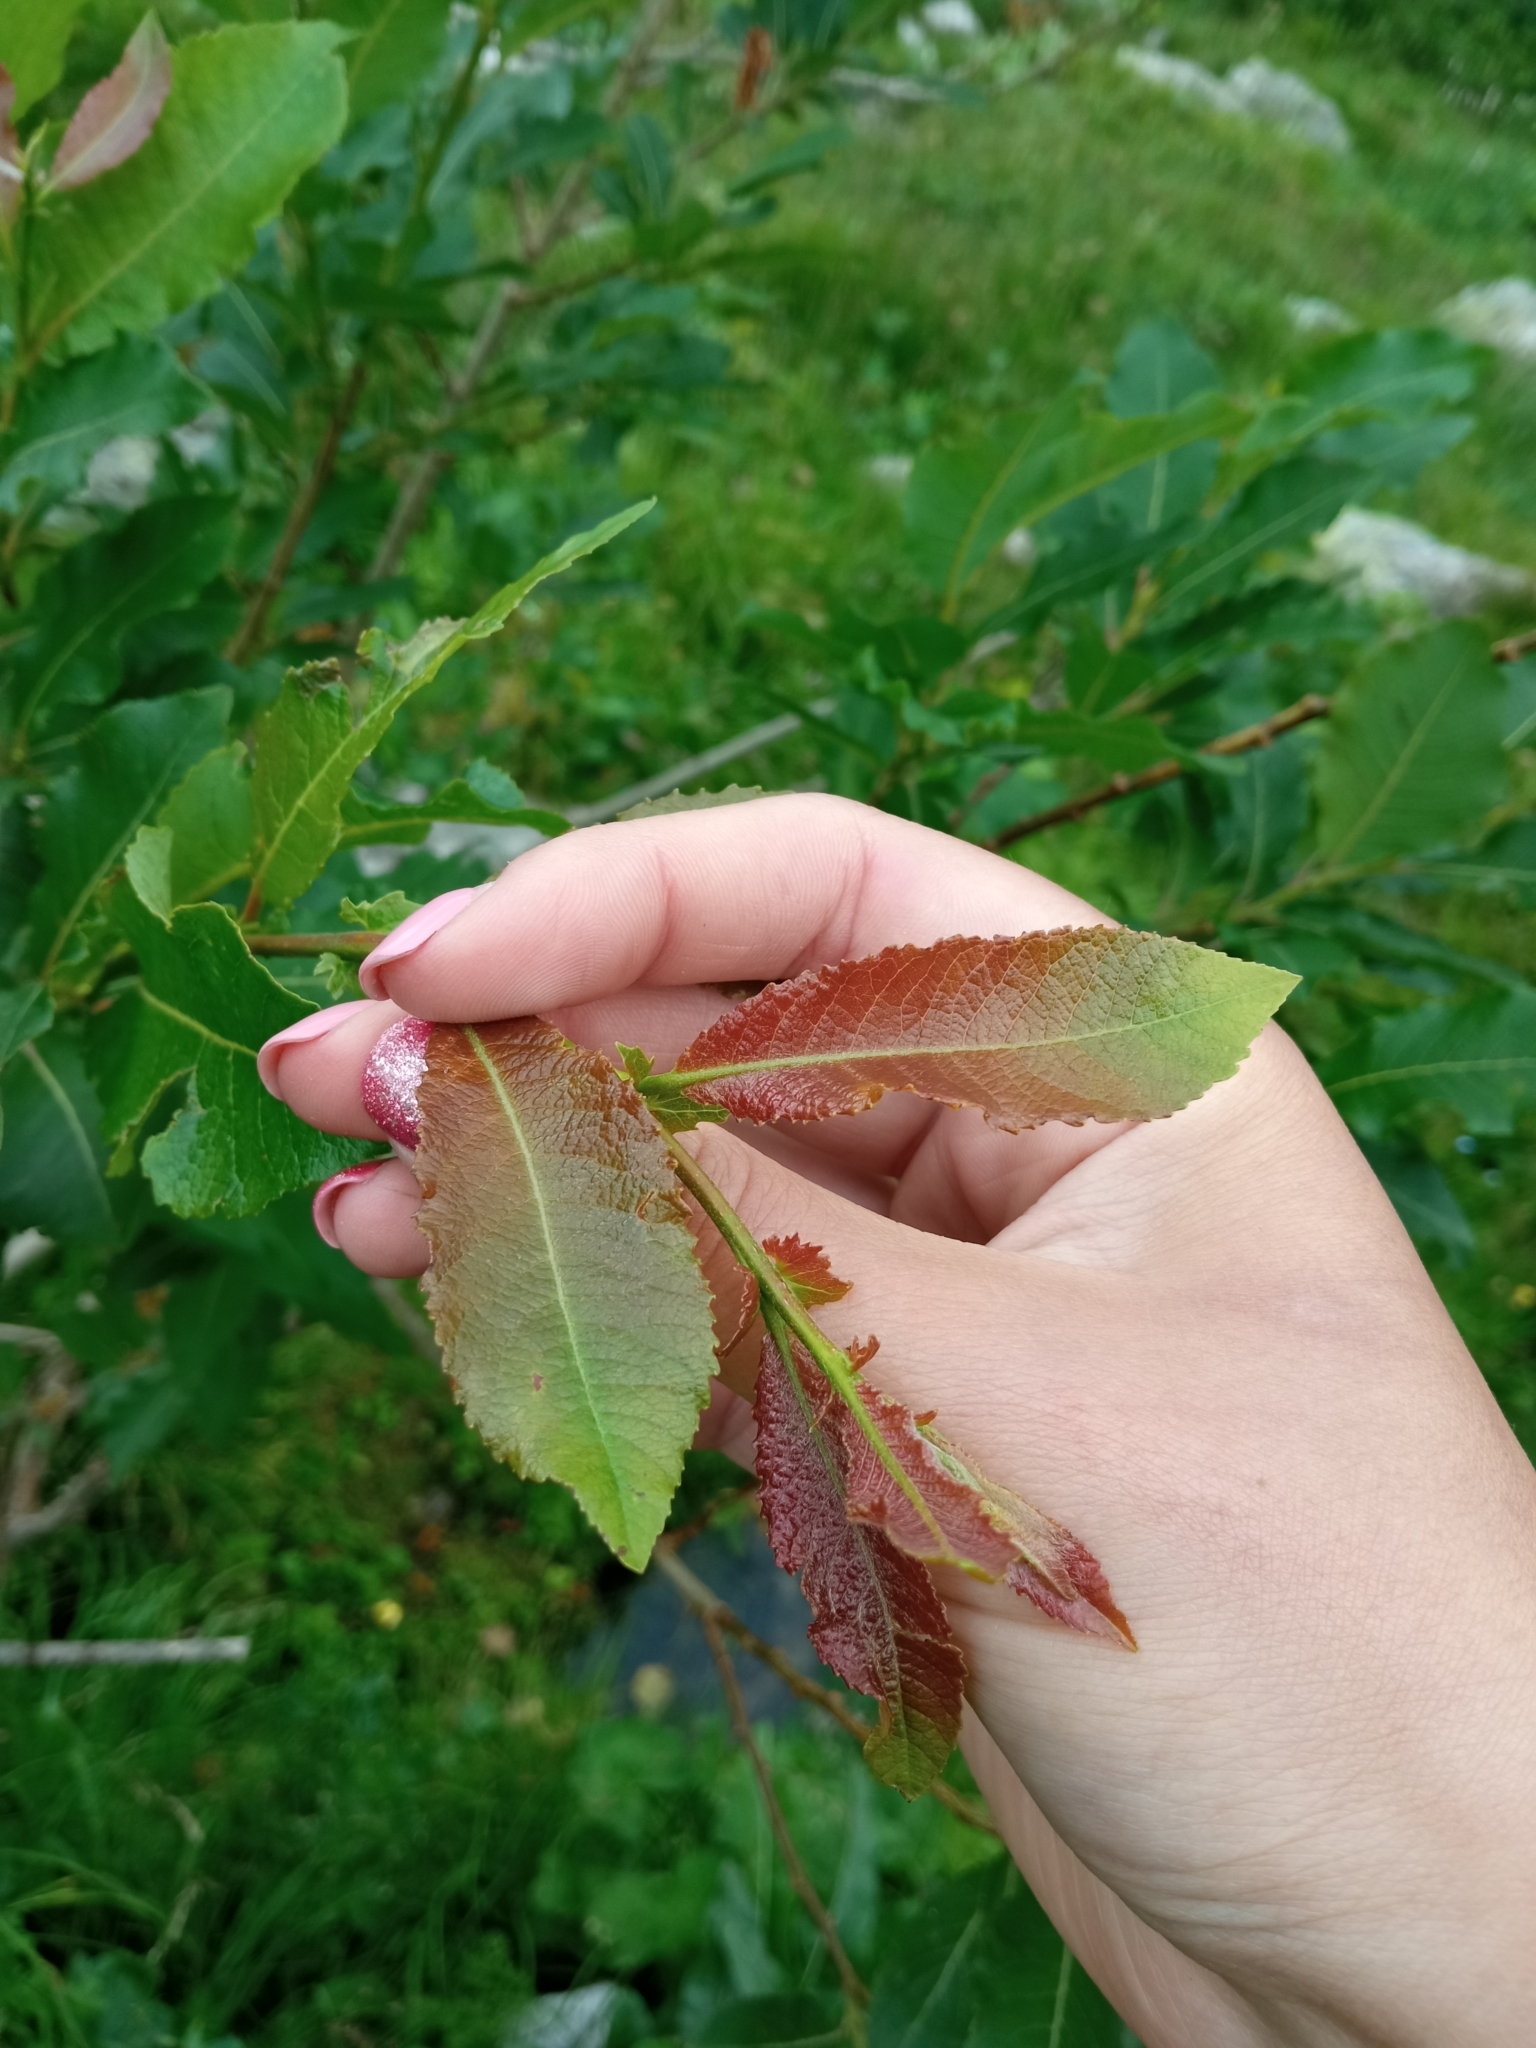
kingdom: Plantae
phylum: Tracheophyta
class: Magnoliopsida
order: Malpighiales
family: Salicaceae
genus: Salix
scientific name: Salix silesiaca
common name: Silesian willow
